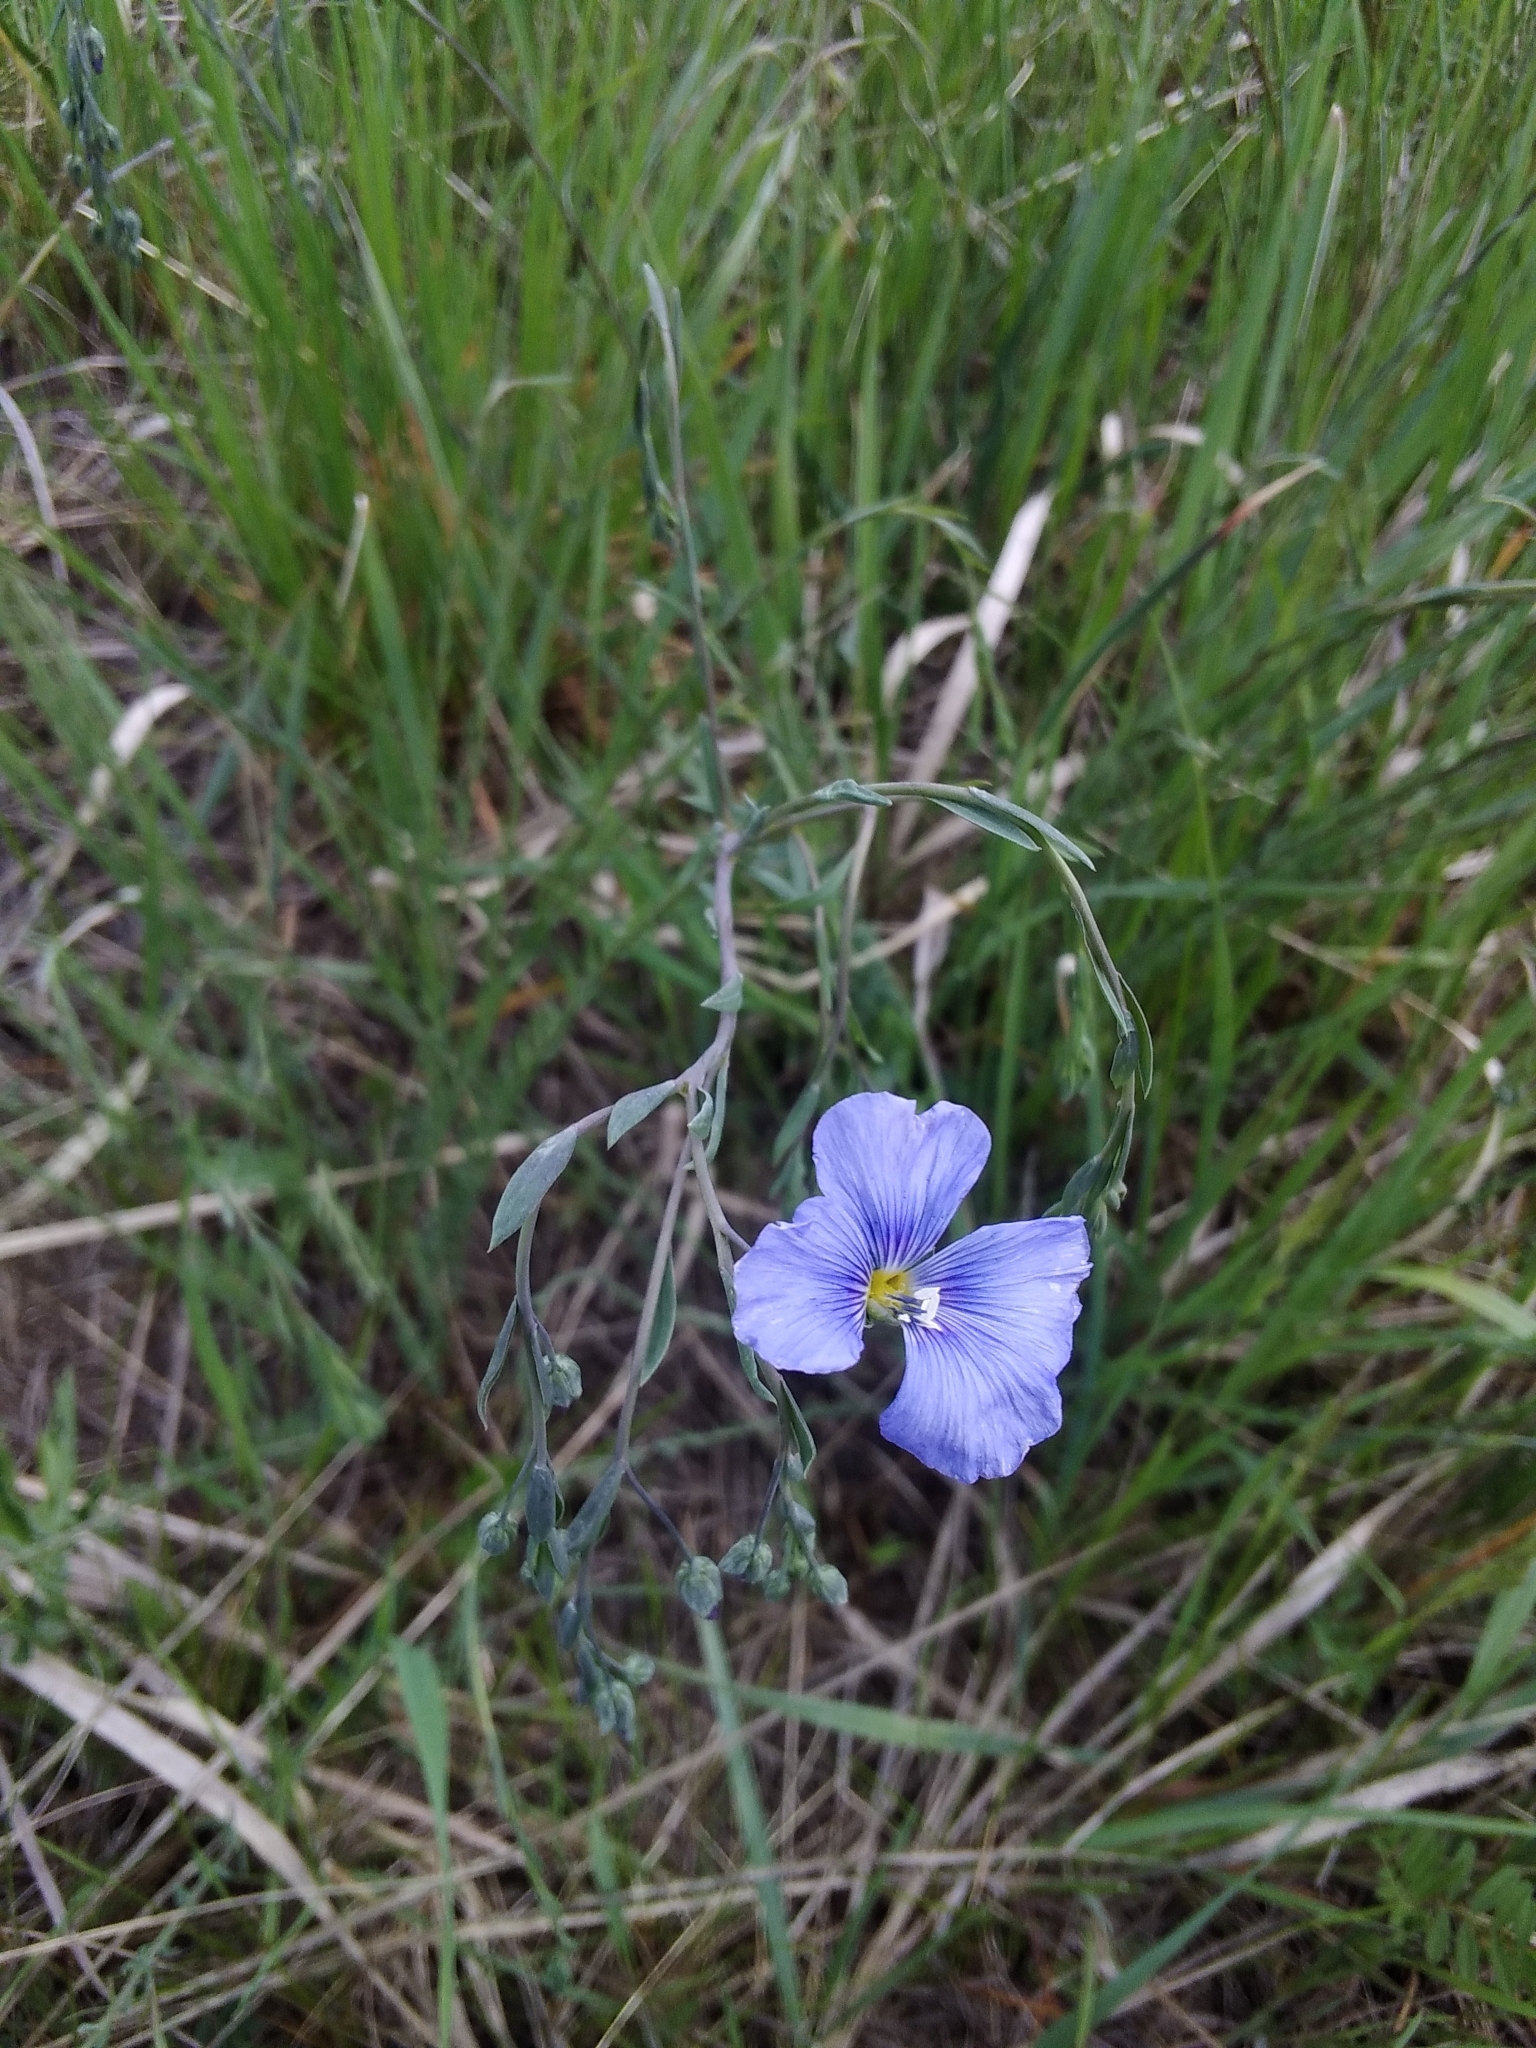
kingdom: Plantae
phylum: Tracheophyta
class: Magnoliopsida
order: Malpighiales
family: Linaceae
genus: Linum
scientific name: Linum austriacum
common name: Austrian flax
